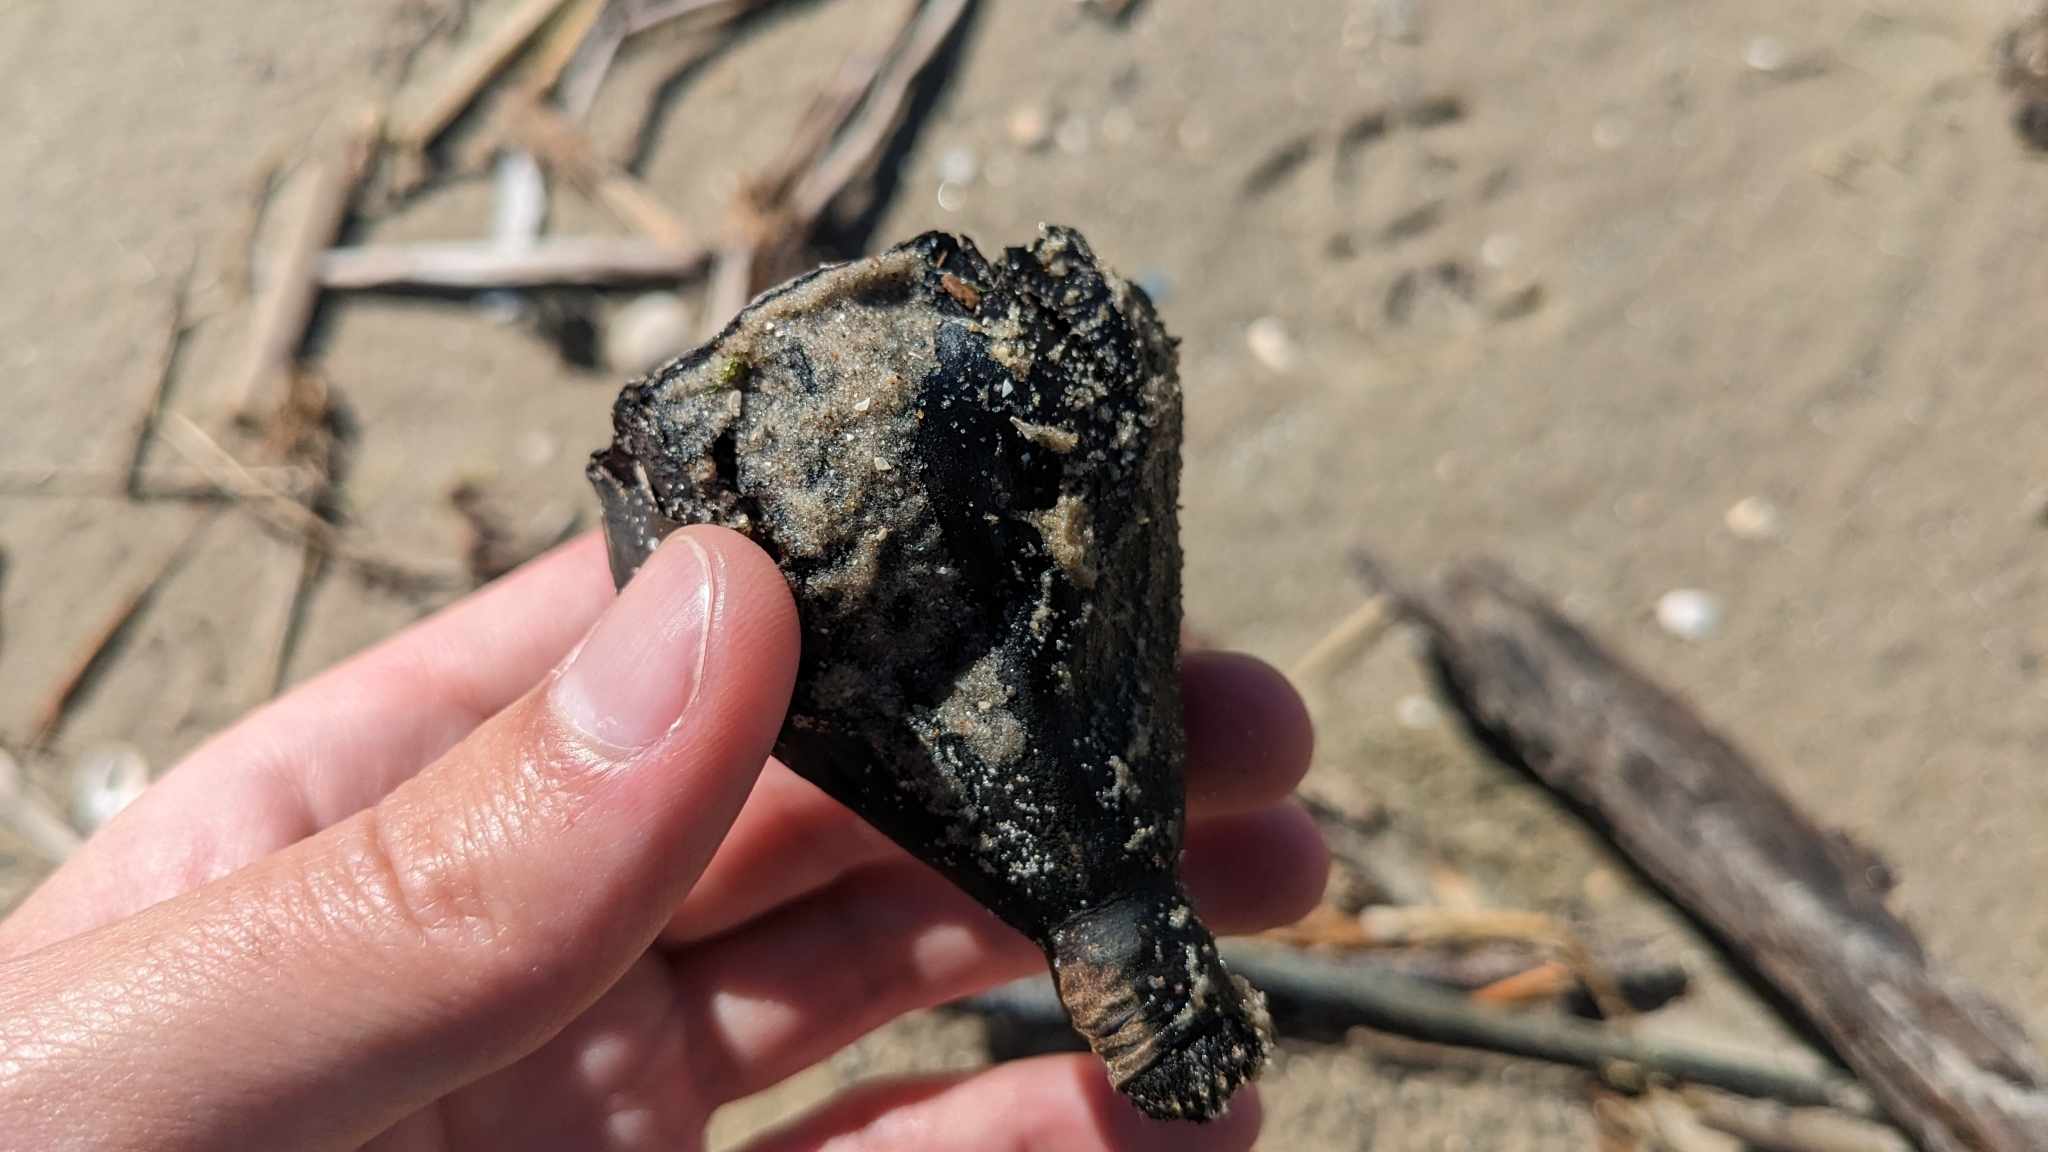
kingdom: Plantae
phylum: Tracheophyta
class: Magnoliopsida
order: Proteales
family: Nelumbonaceae
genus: Nelumbo
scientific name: Nelumbo lutea
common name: American lotus
